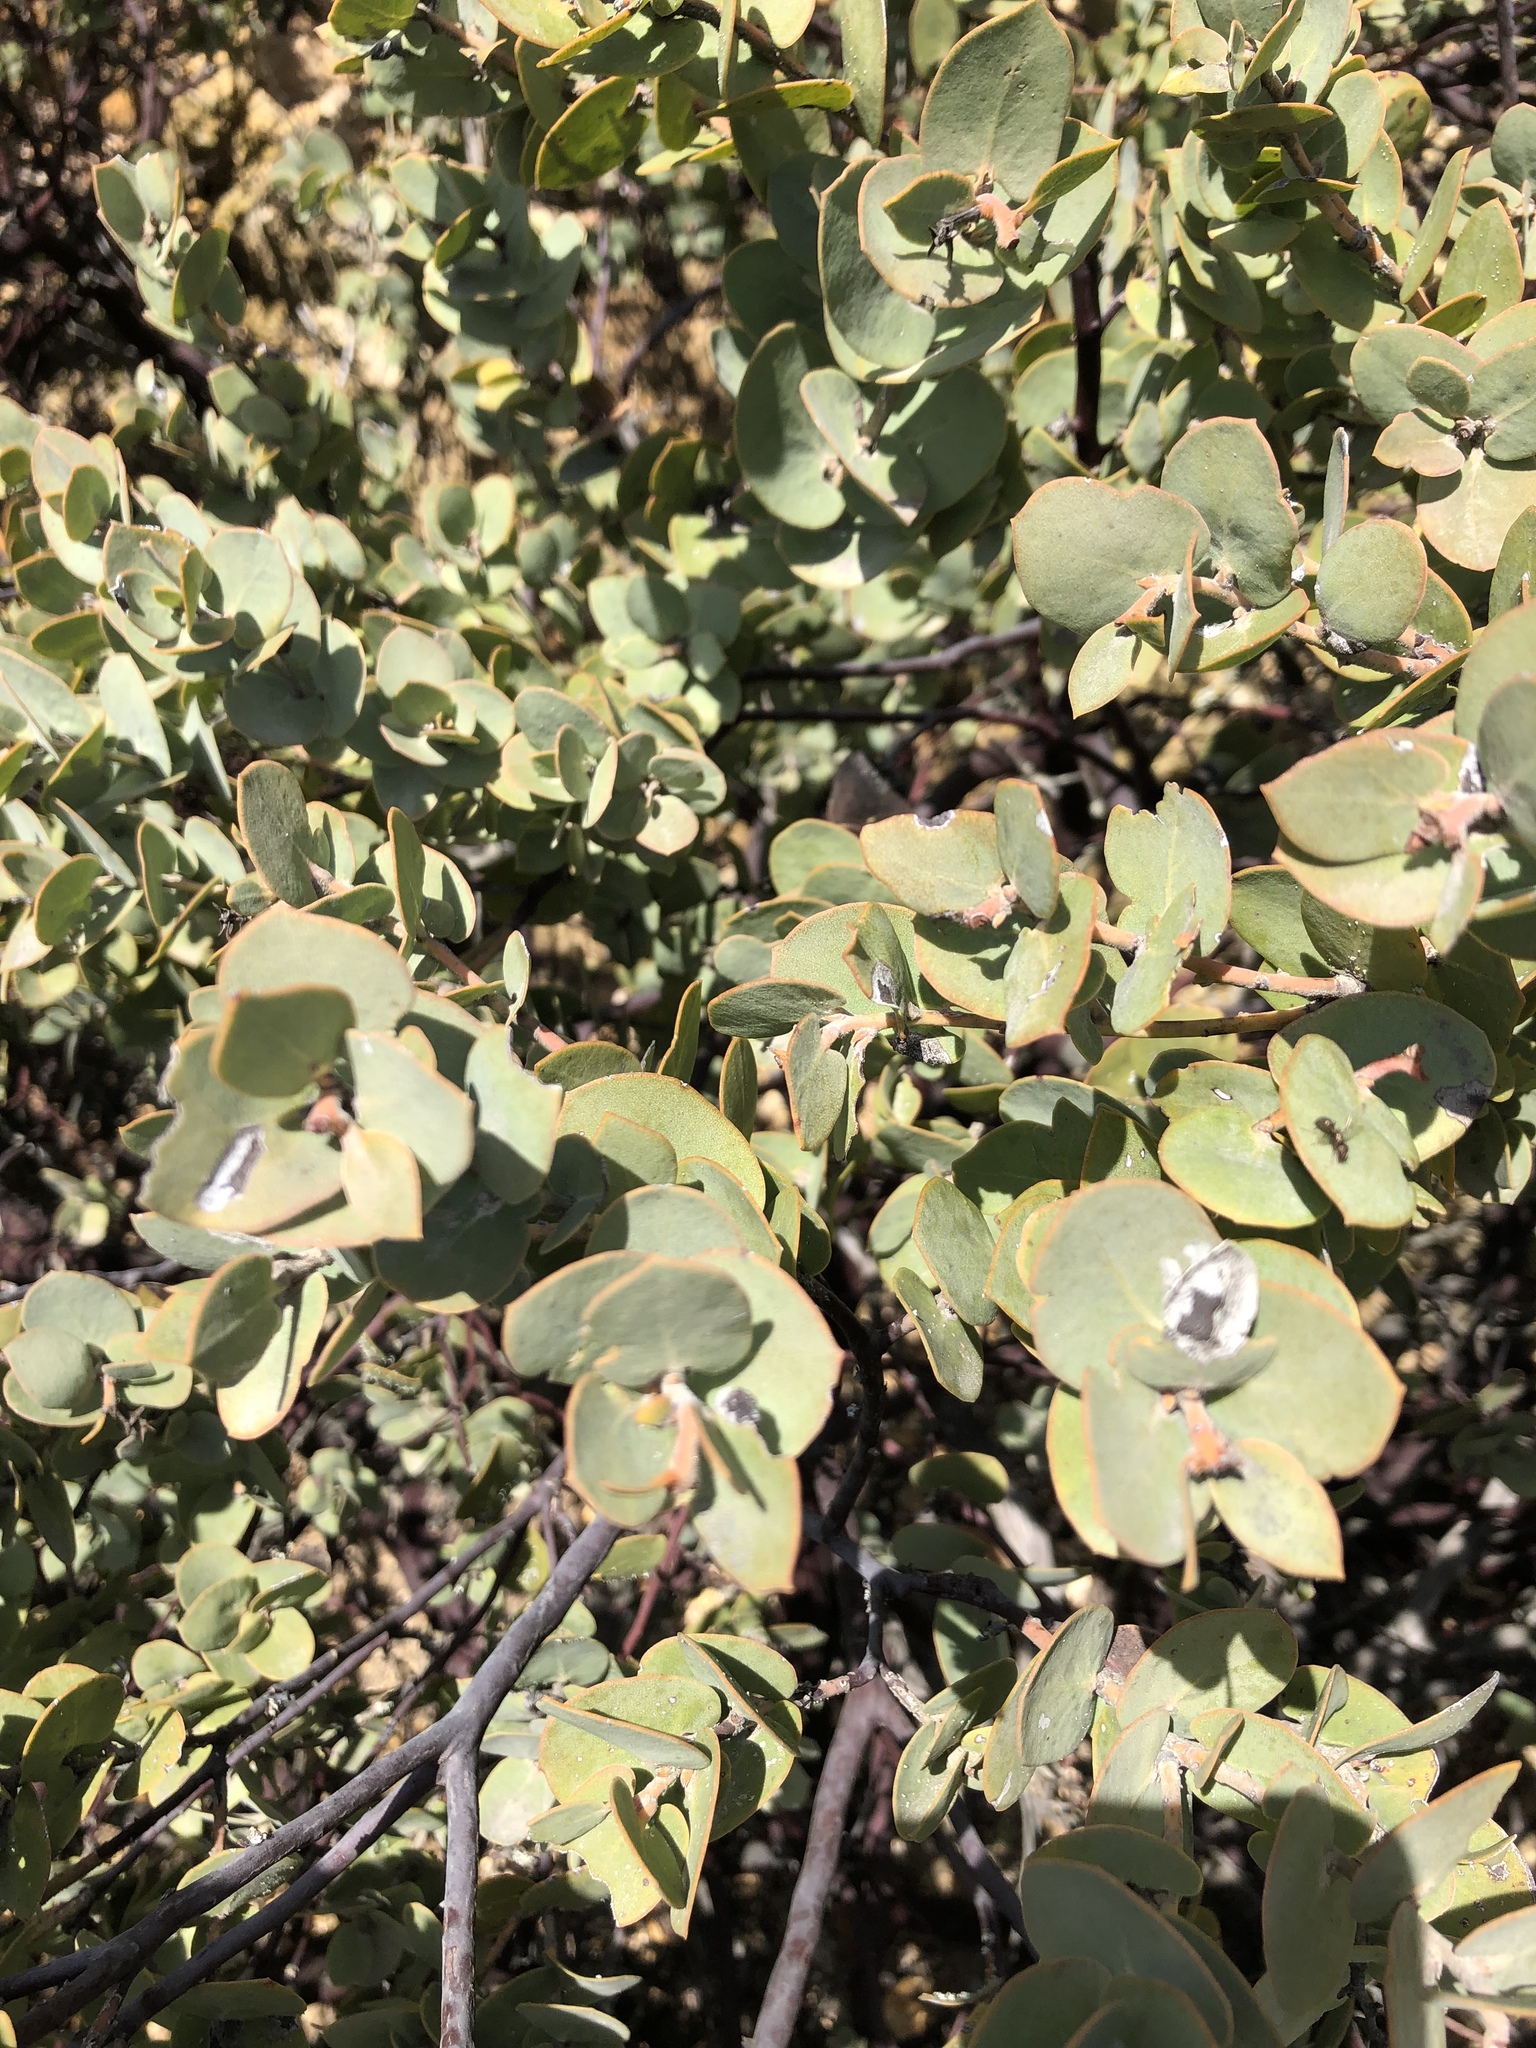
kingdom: Plantae
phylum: Tracheophyta
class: Magnoliopsida
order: Ericales
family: Ericaceae
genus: Arctostaphylos
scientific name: Arctostaphylos luciana
